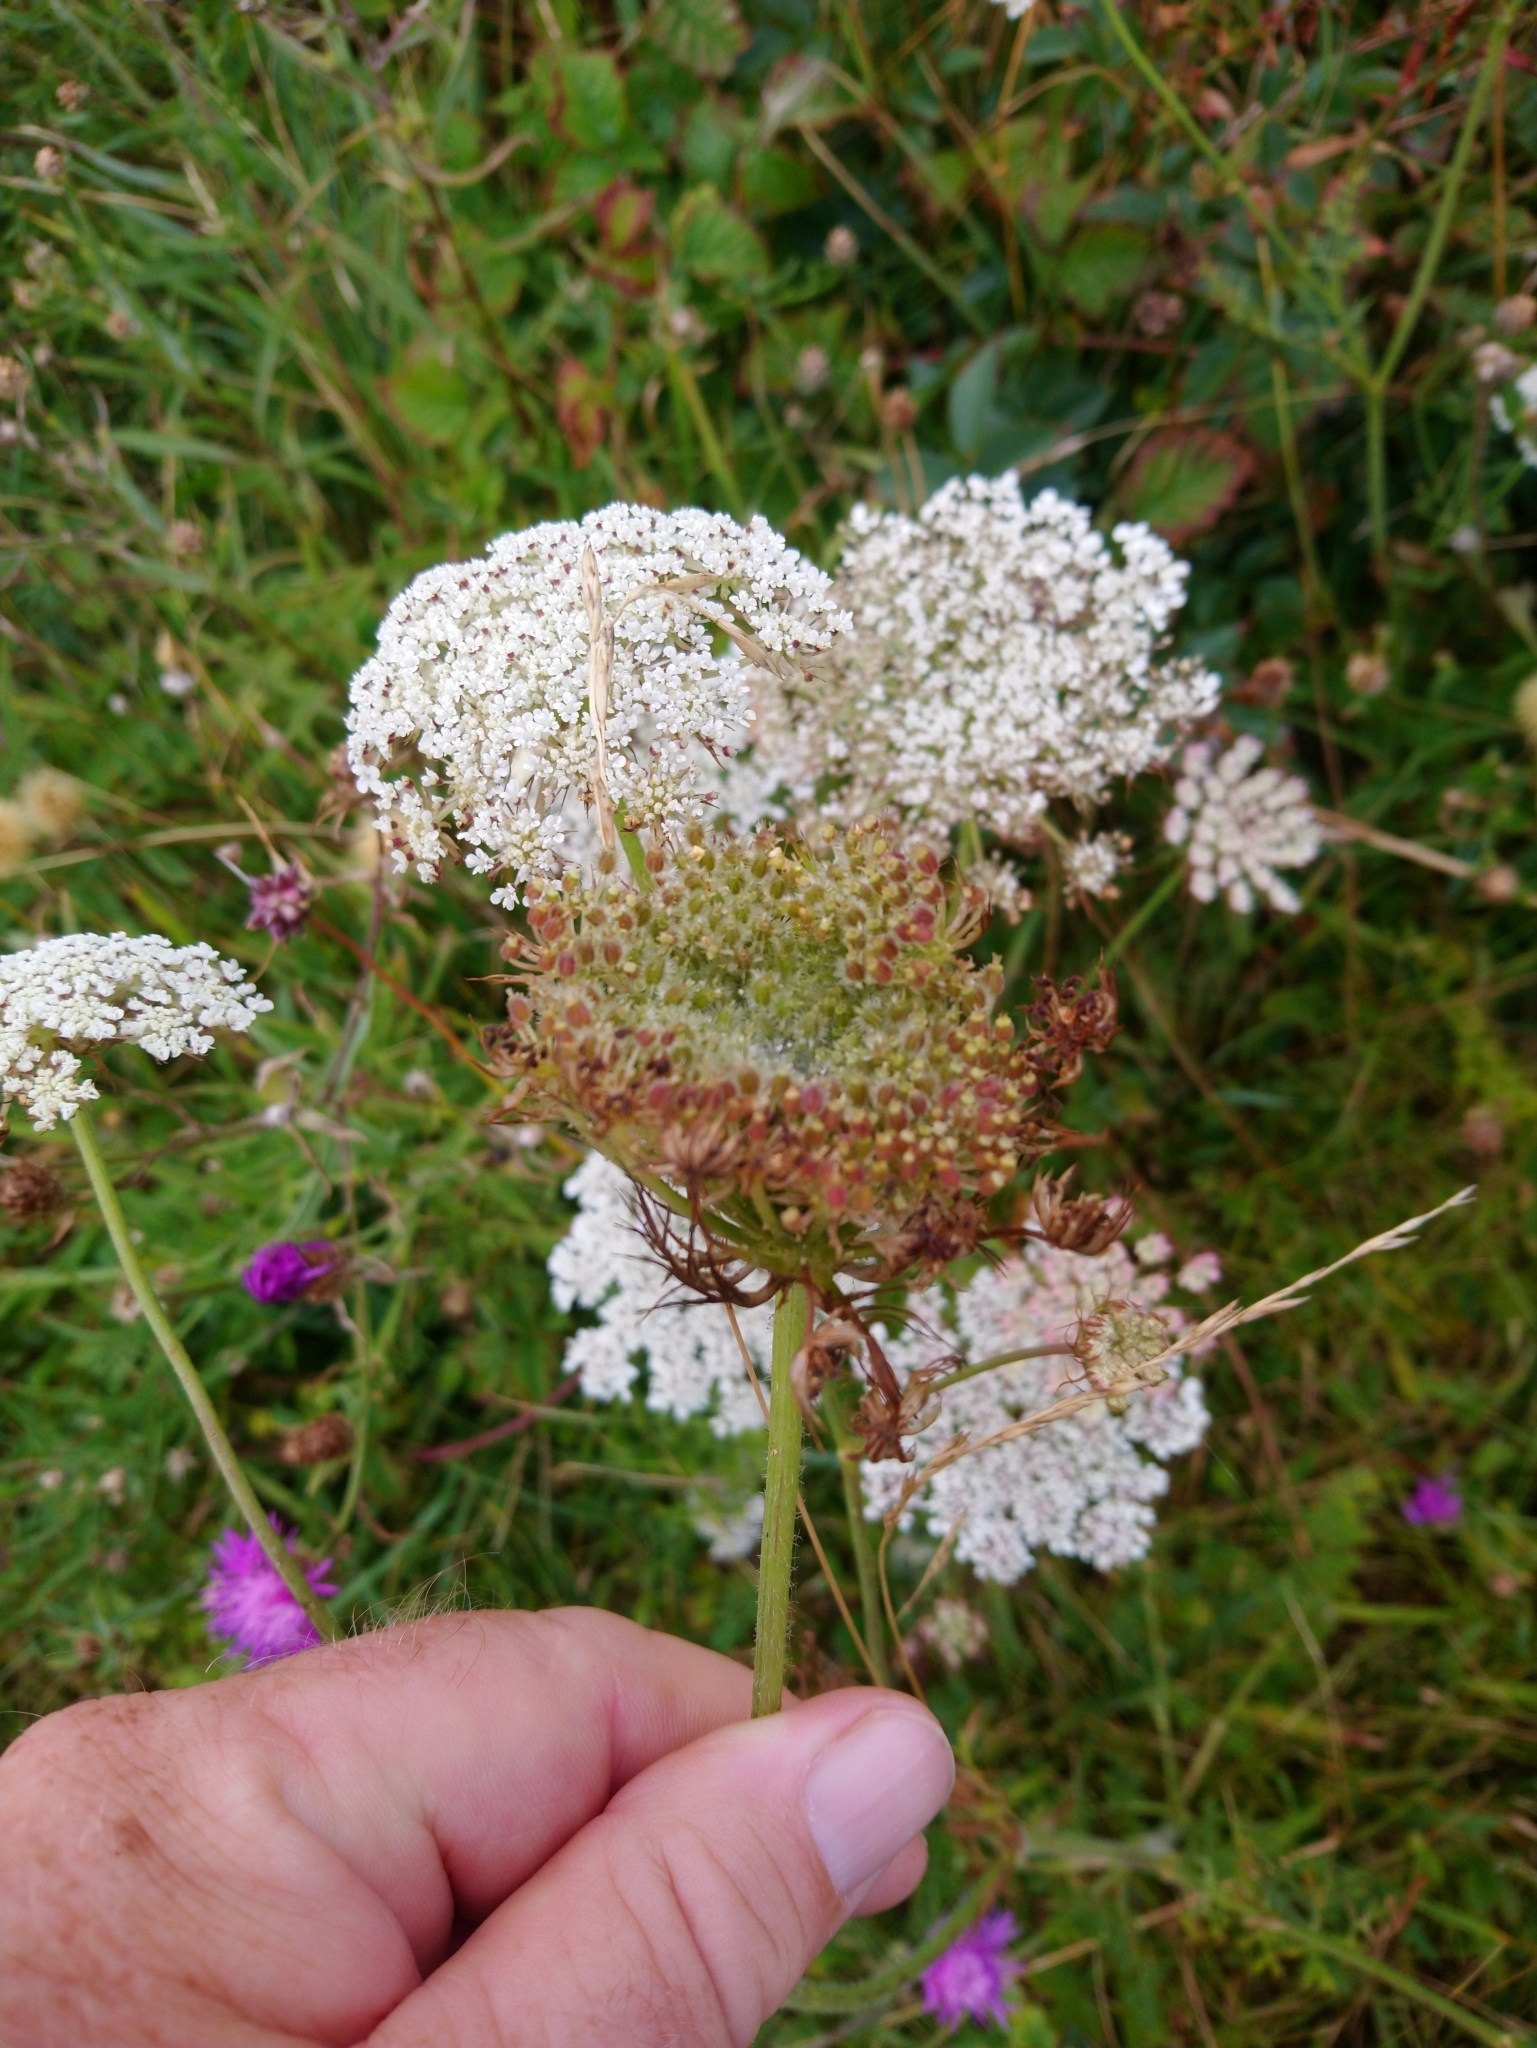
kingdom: Plantae
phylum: Tracheophyta
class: Magnoliopsida
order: Apiales
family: Apiaceae
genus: Daucus
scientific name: Daucus carota
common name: Wild carrot
